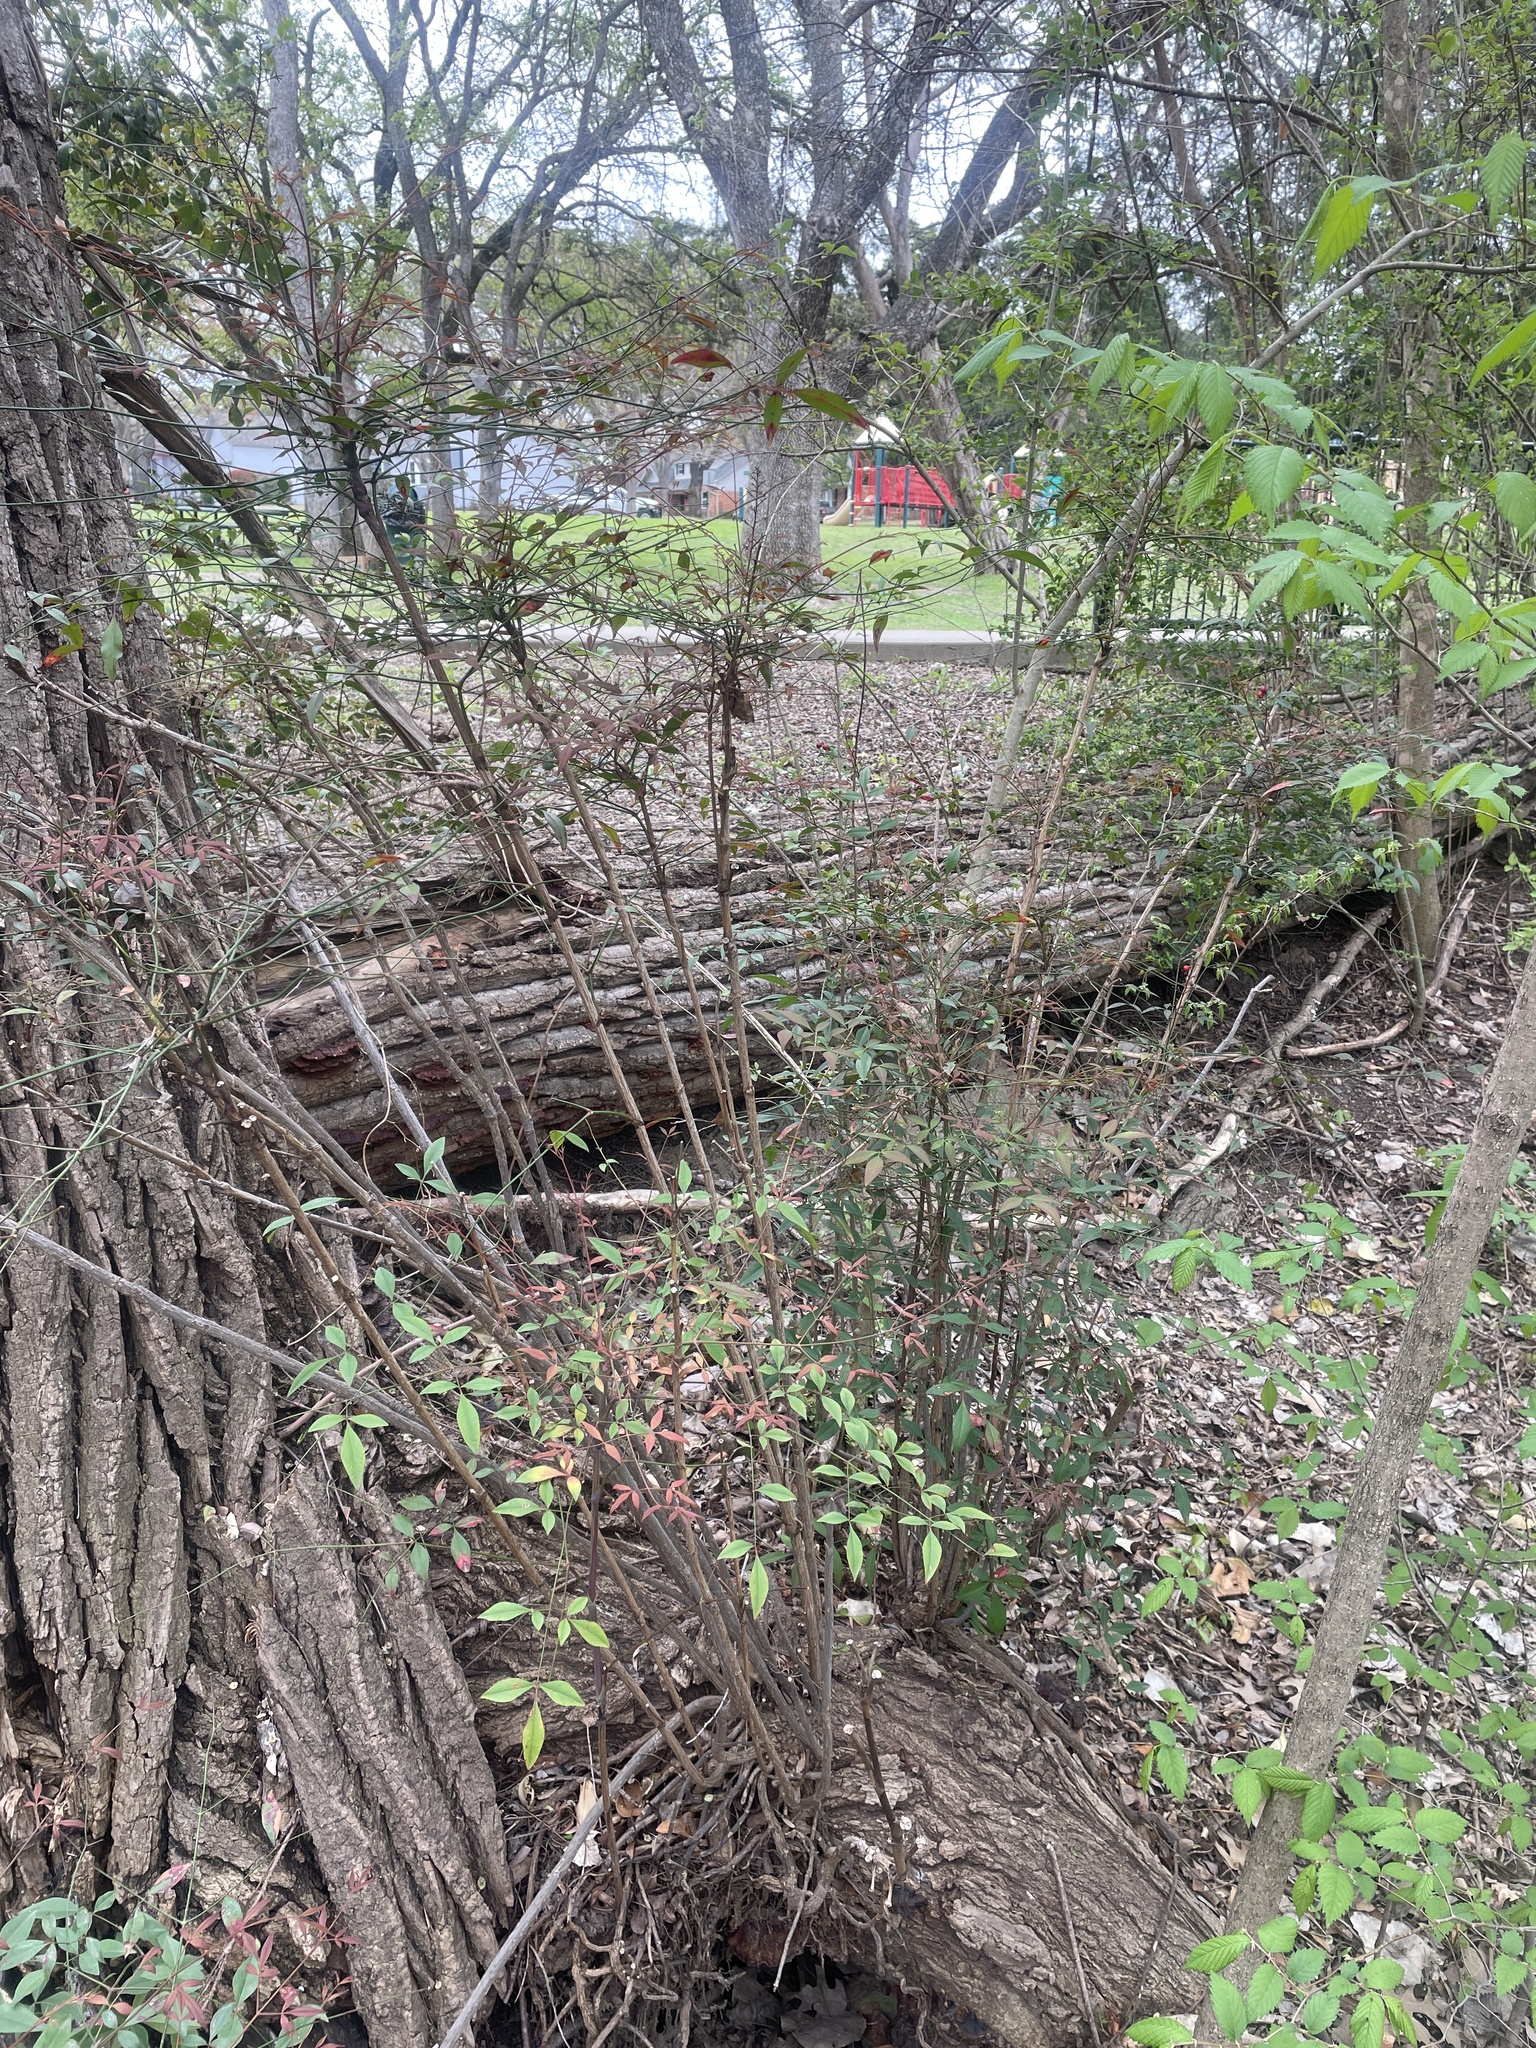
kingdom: Plantae
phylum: Tracheophyta
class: Magnoliopsida
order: Ranunculales
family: Berberidaceae
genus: Nandina
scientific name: Nandina domestica
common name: Sacred bamboo
